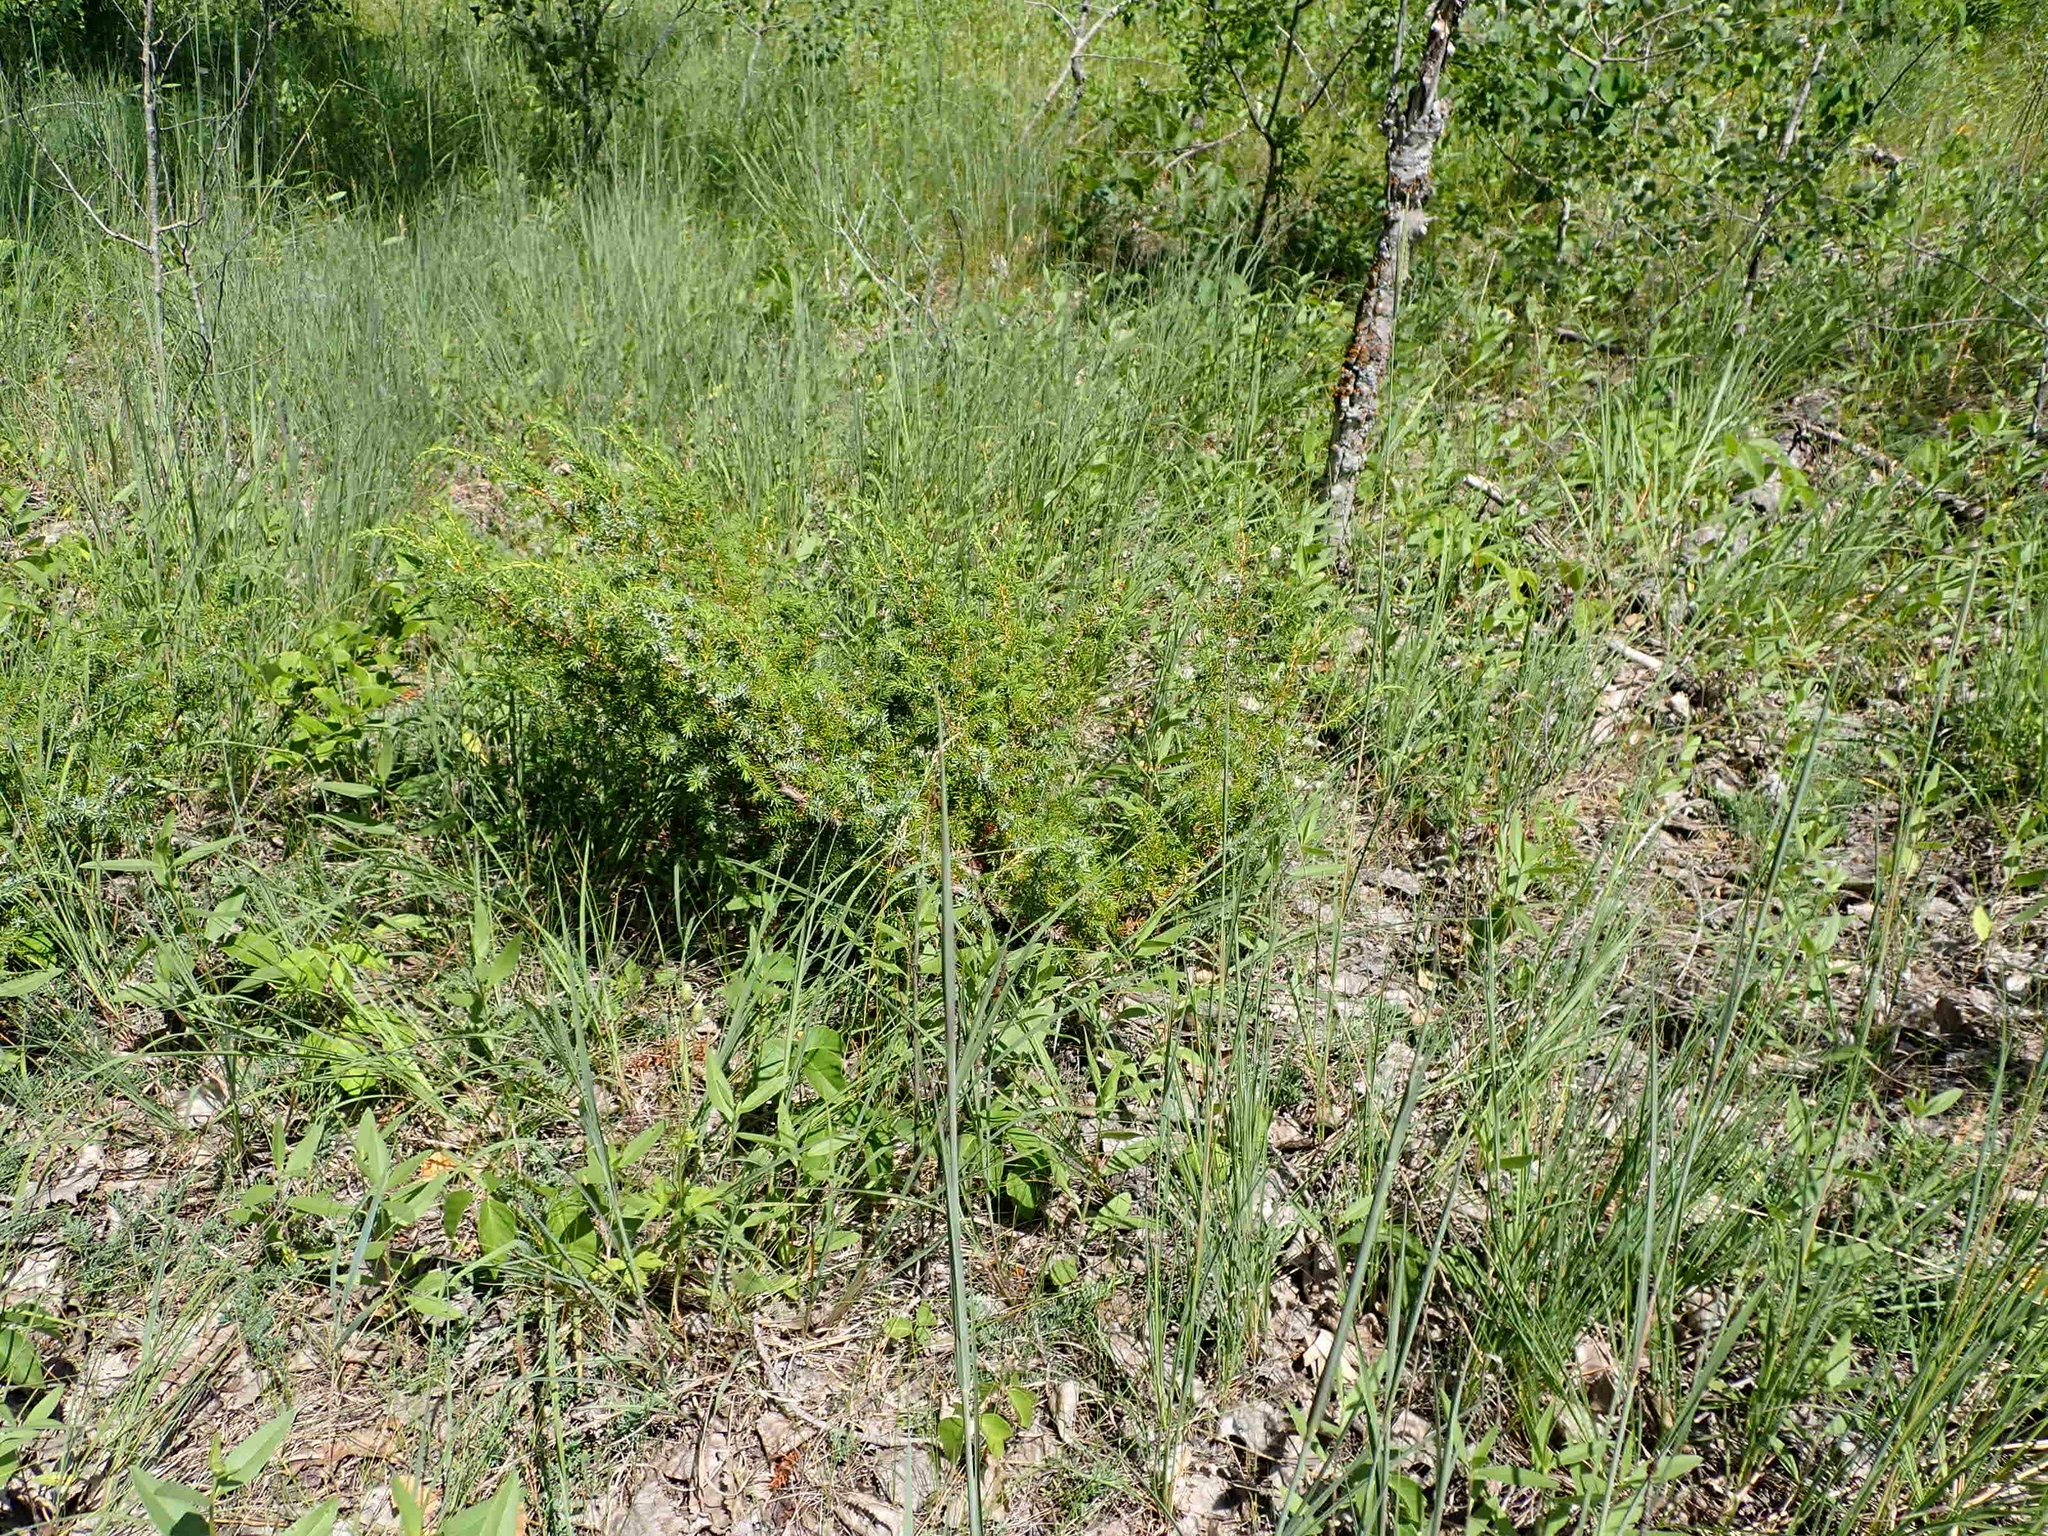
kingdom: Plantae
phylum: Tracheophyta
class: Pinopsida
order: Pinales
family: Cupressaceae
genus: Juniperus
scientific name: Juniperus communis
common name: Common juniper
